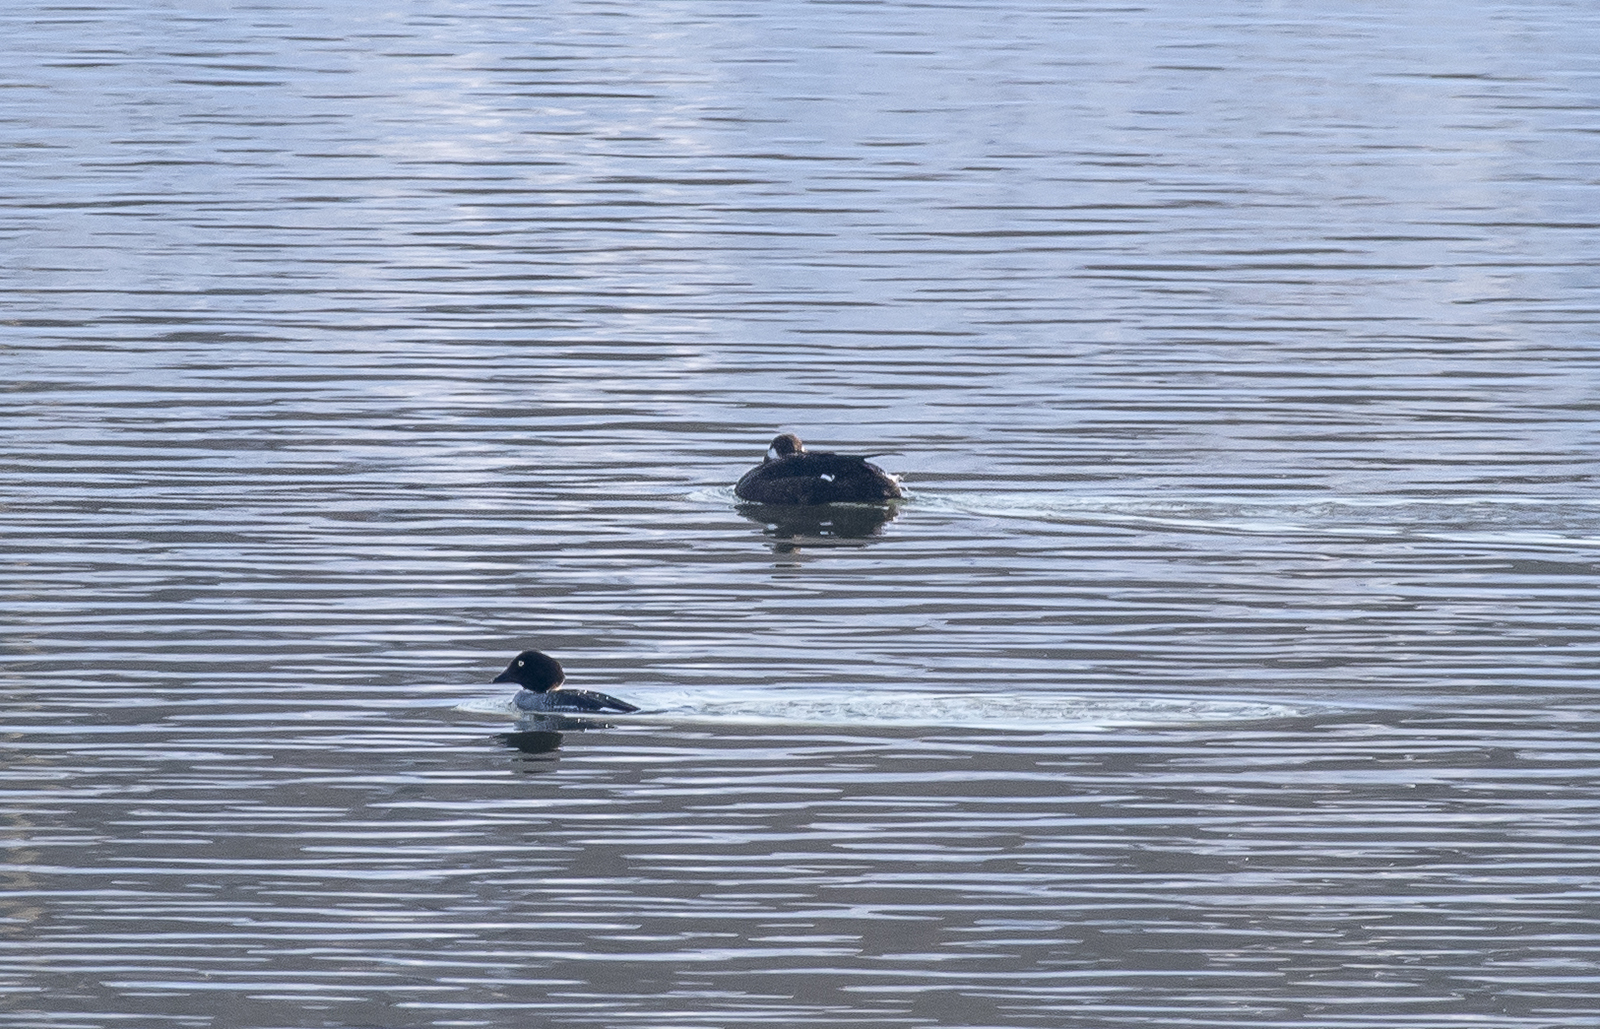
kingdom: Animalia
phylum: Chordata
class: Aves
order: Anseriformes
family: Anatidae
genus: Melanitta
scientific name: Melanitta fusca
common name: Velvet scoter
